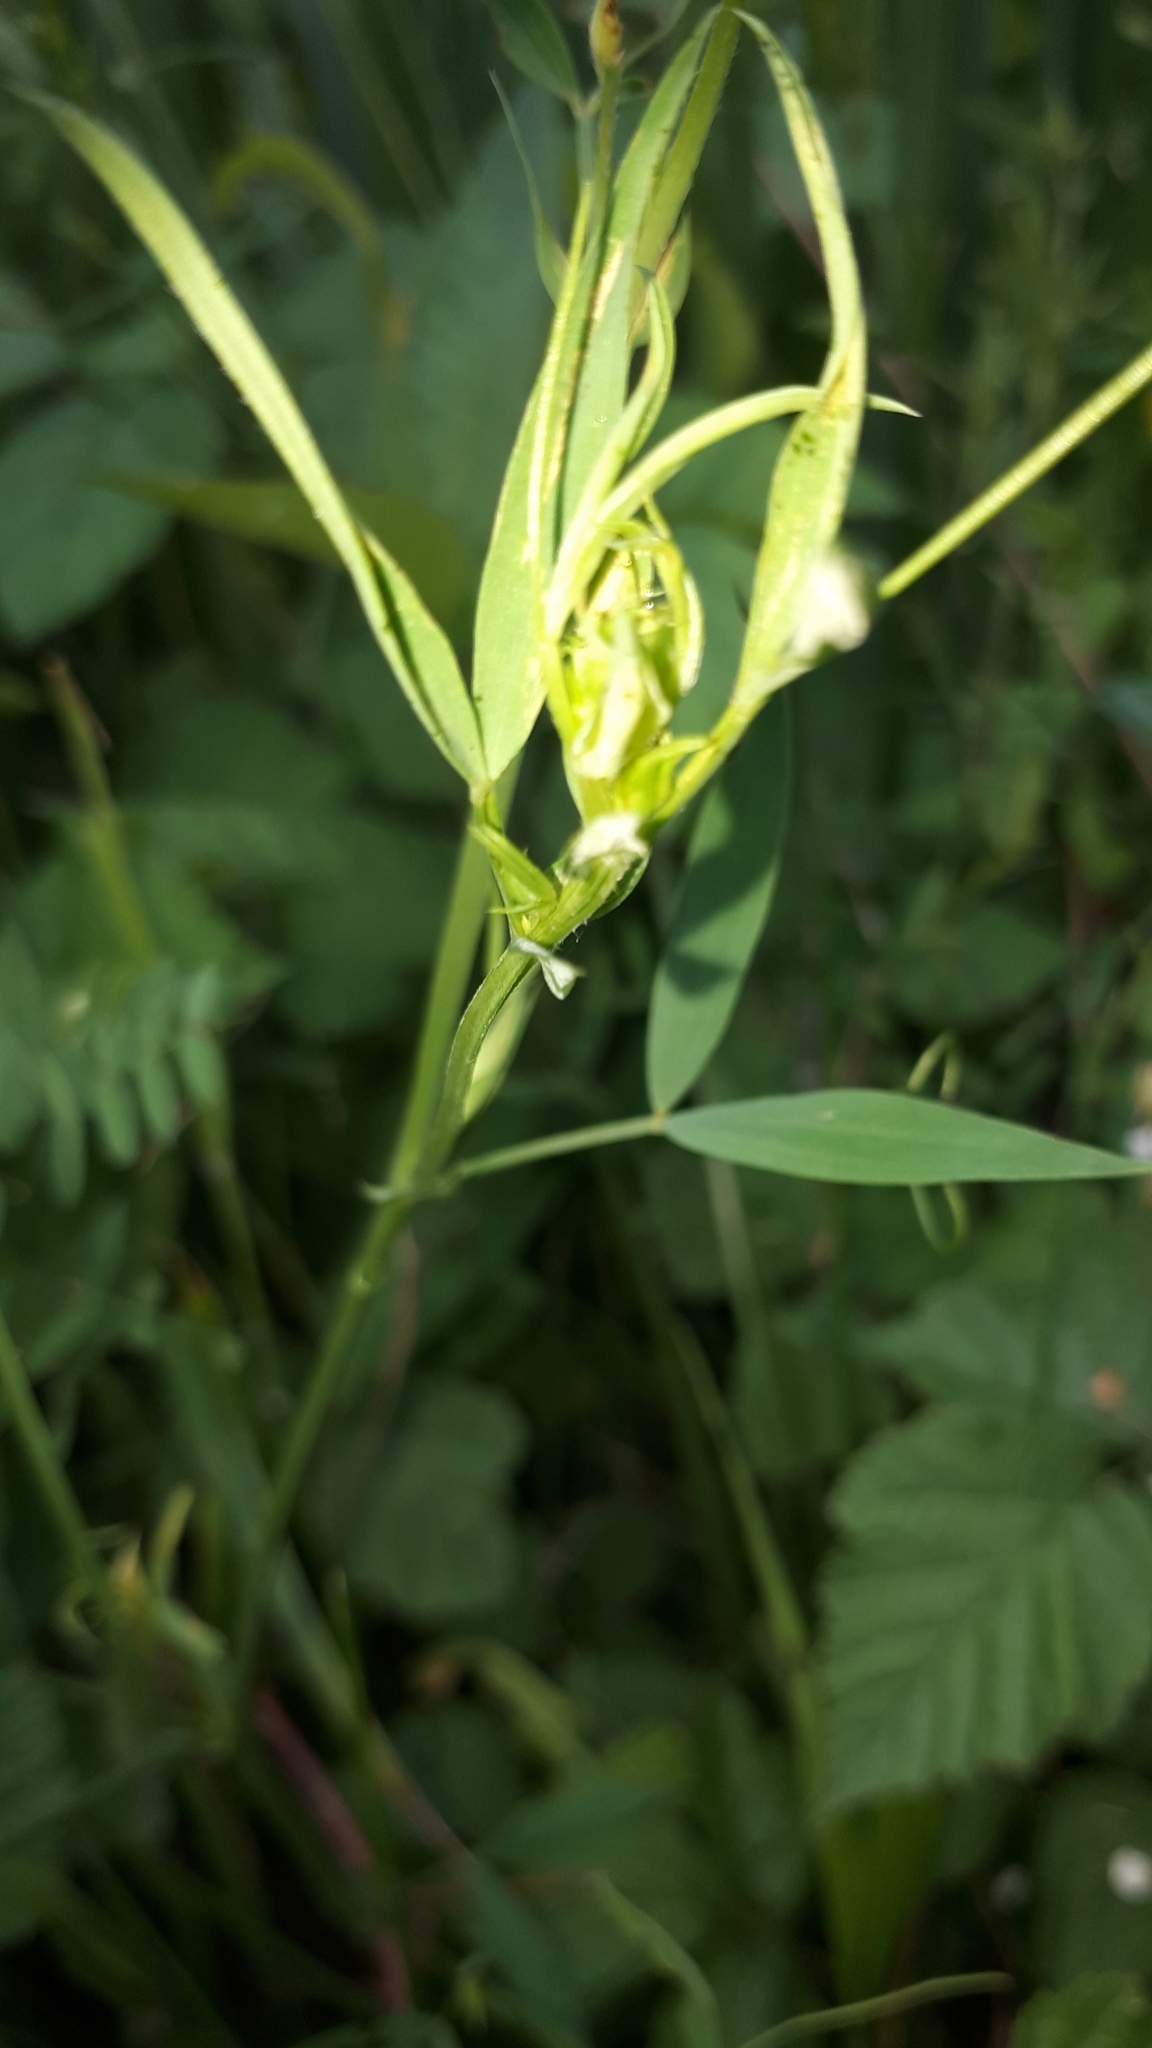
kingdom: Plantae
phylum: Tracheophyta
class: Magnoliopsida
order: Fabales
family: Fabaceae
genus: Lathyrus
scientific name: Lathyrus pratensis
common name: Meadow vetchling
